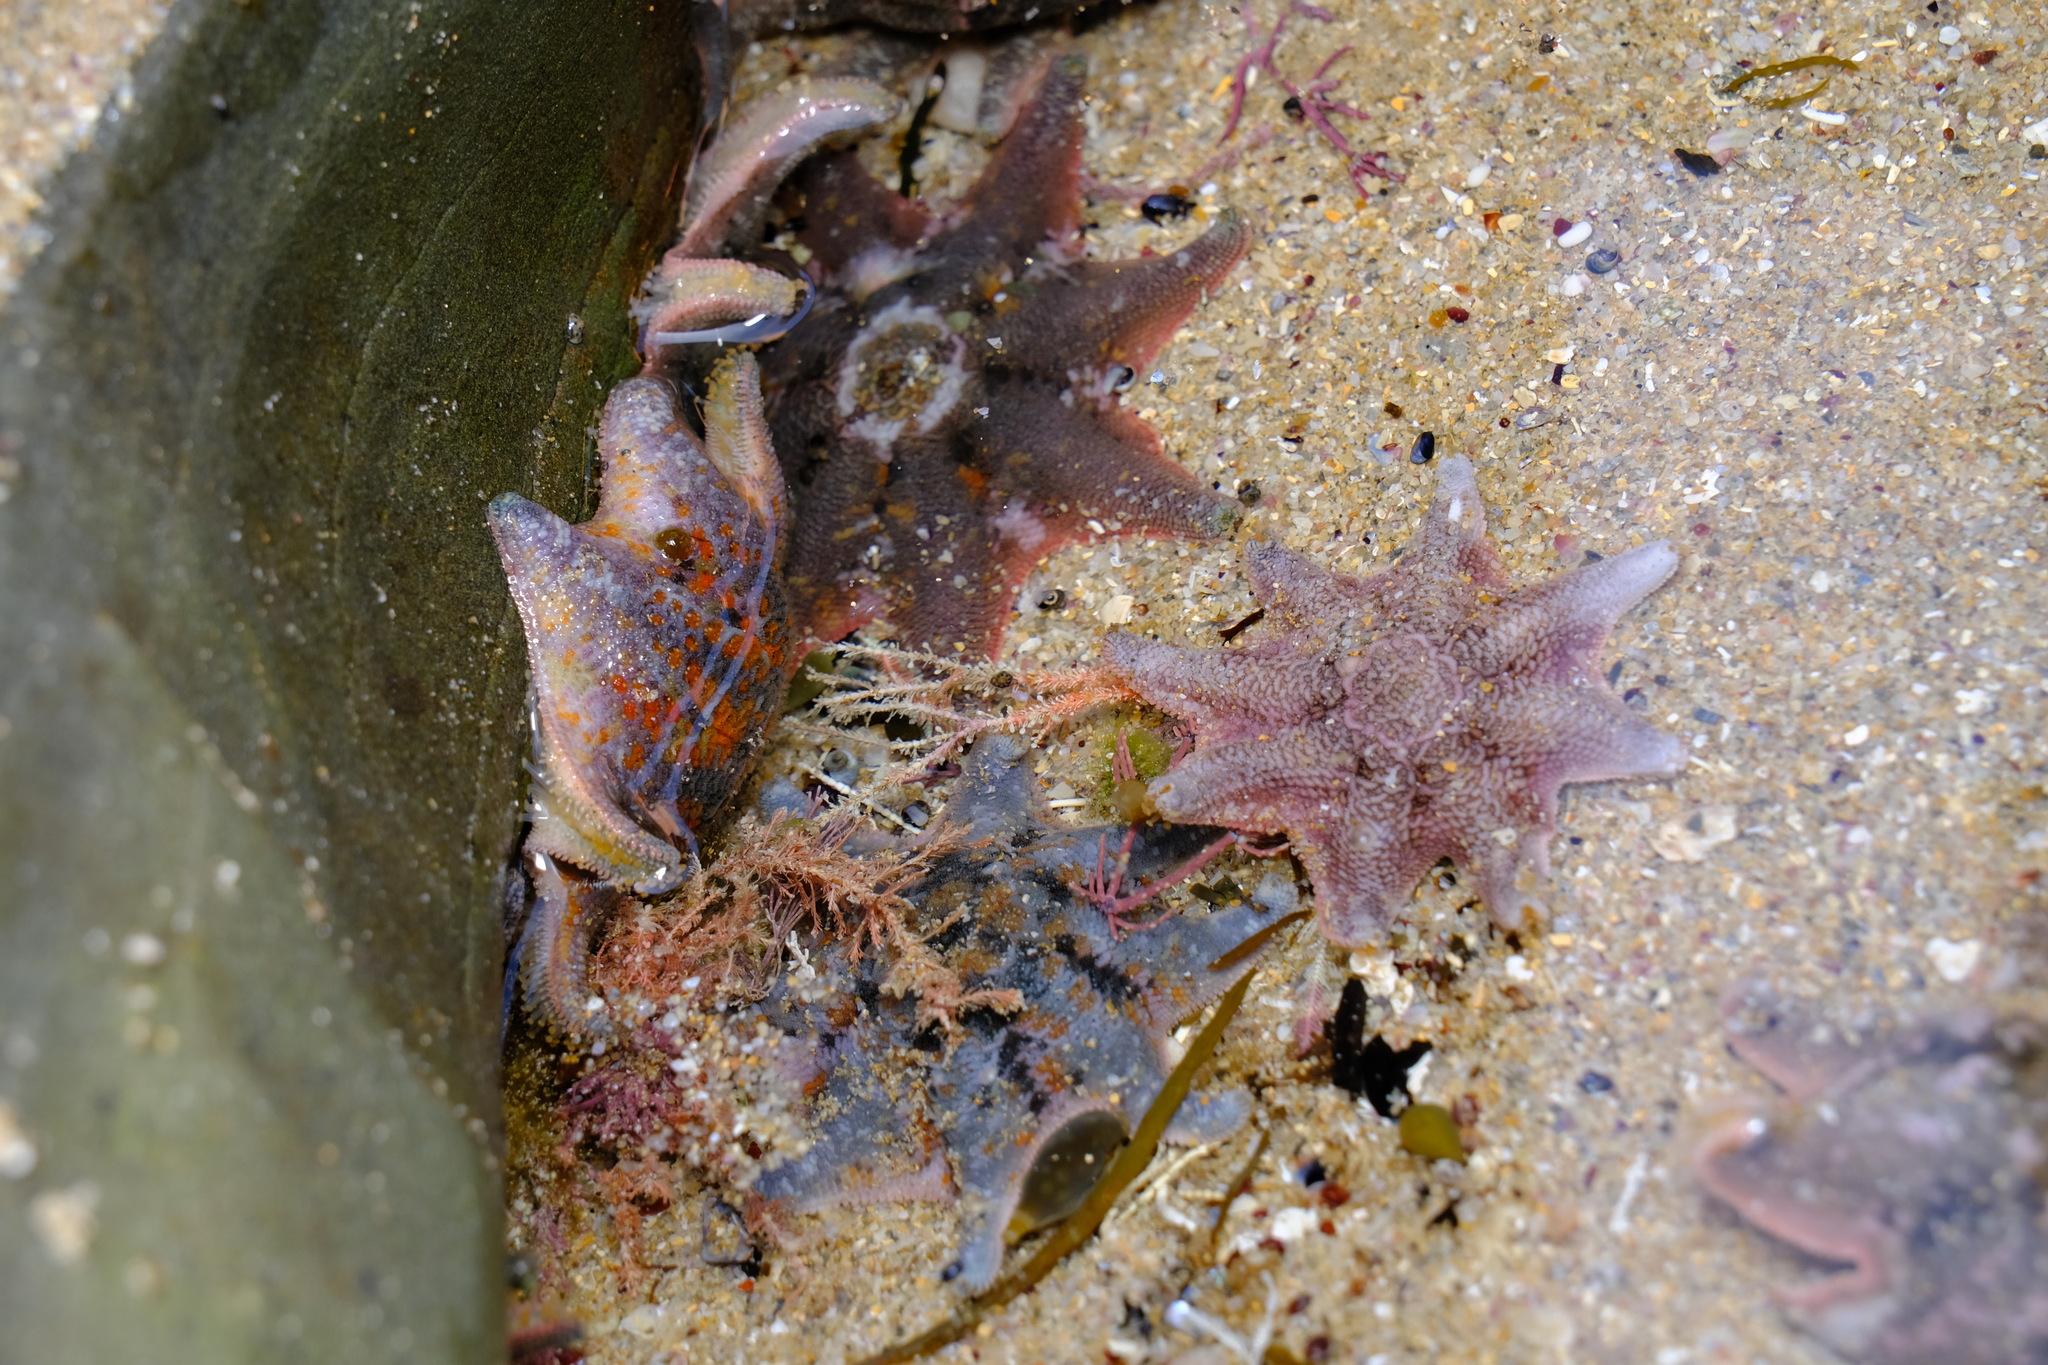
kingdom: Animalia
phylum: Echinodermata
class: Asteroidea
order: Valvatida
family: Asterinidae
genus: Meridiastra
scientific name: Meridiastra calcar
